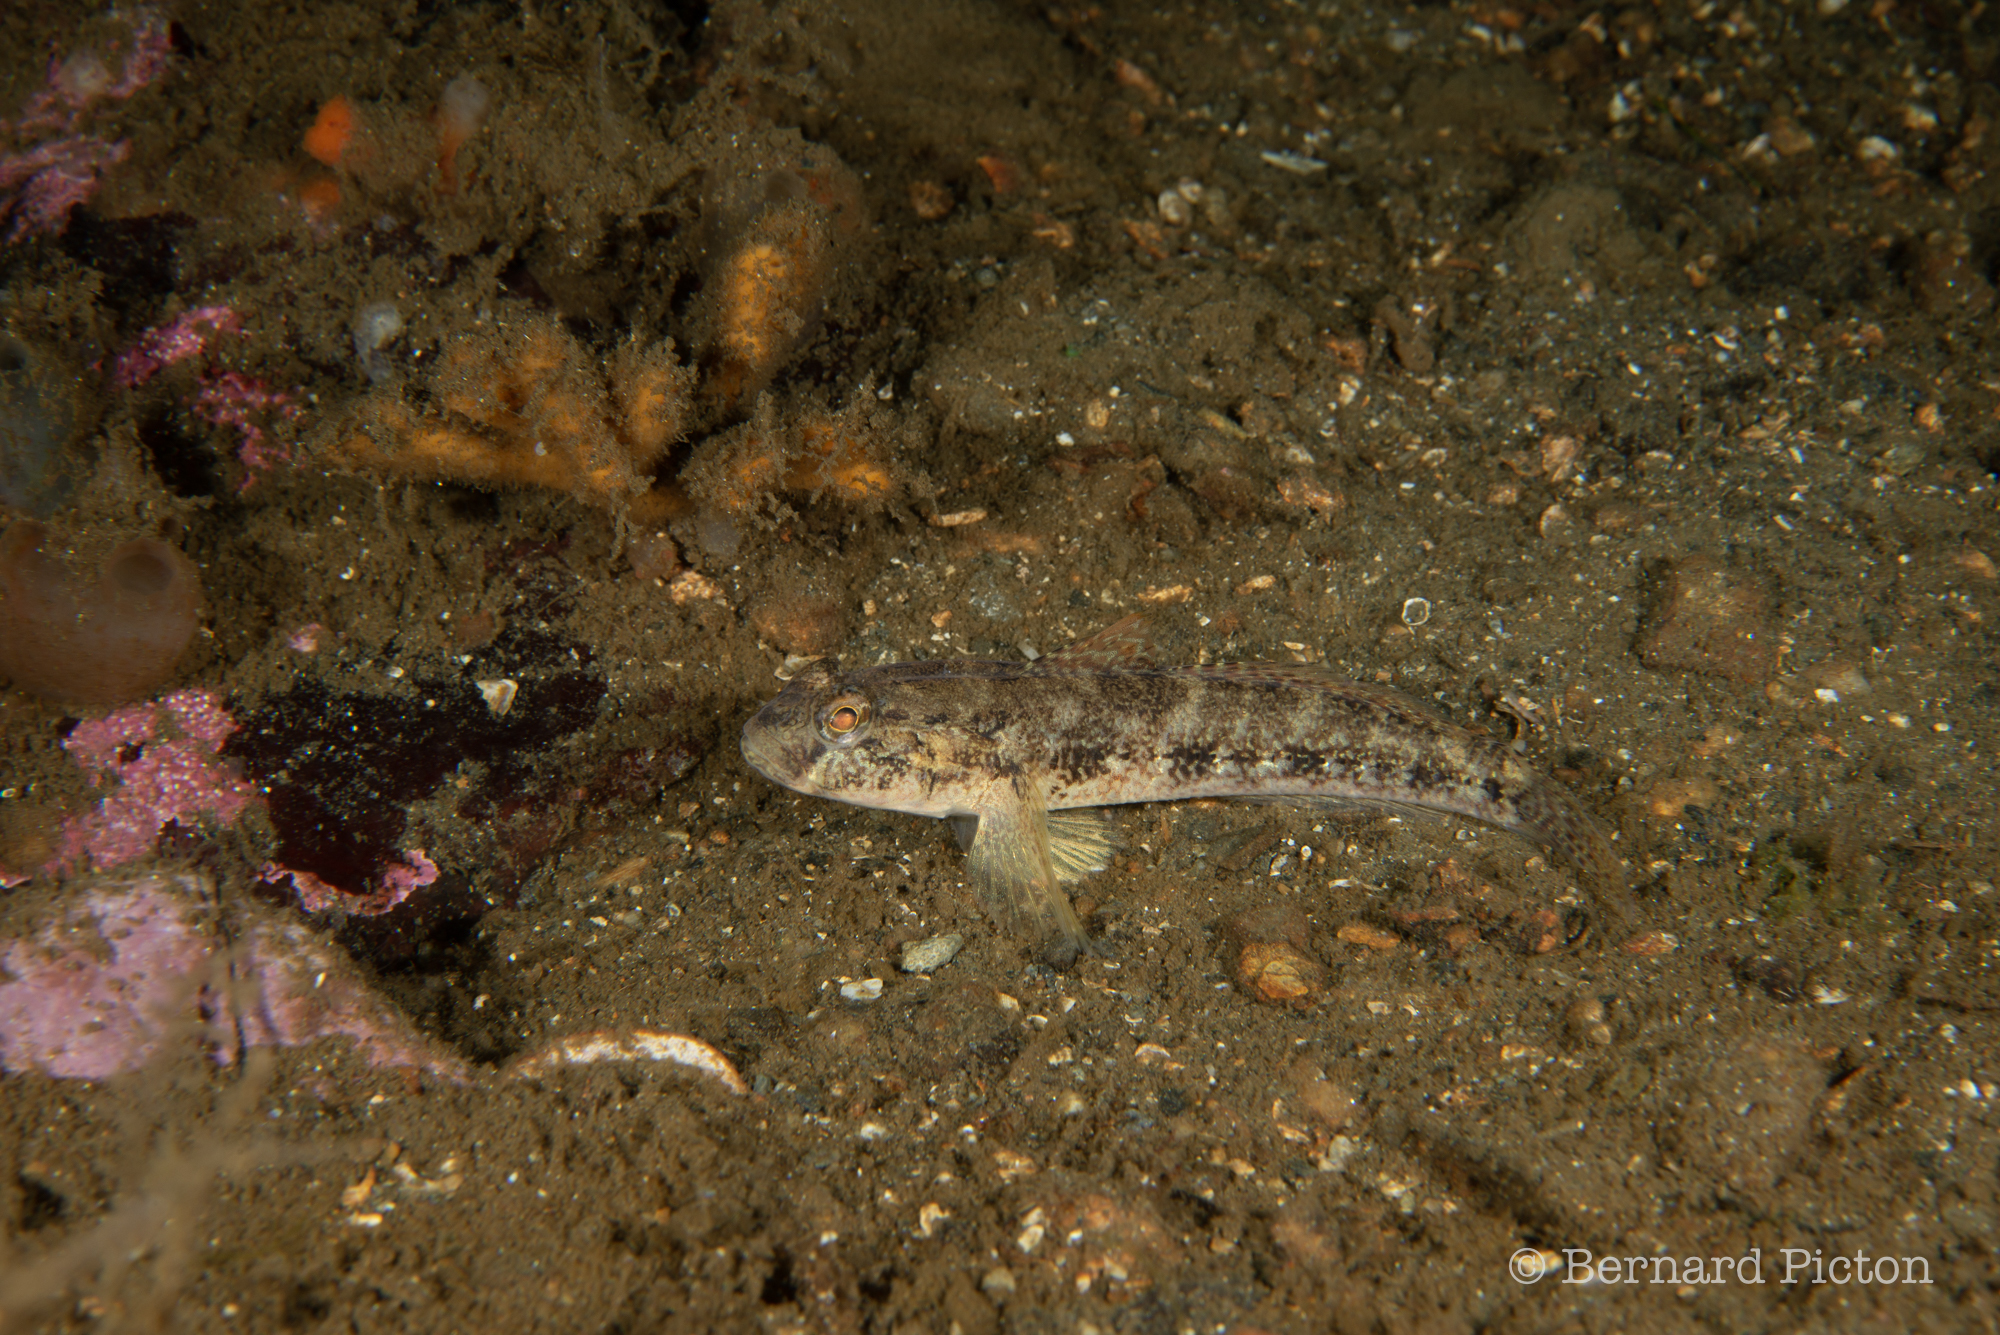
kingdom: Animalia
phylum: Chordata
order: Perciformes
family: Gobiidae
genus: Gobius
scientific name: Gobius niger
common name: Black goby
